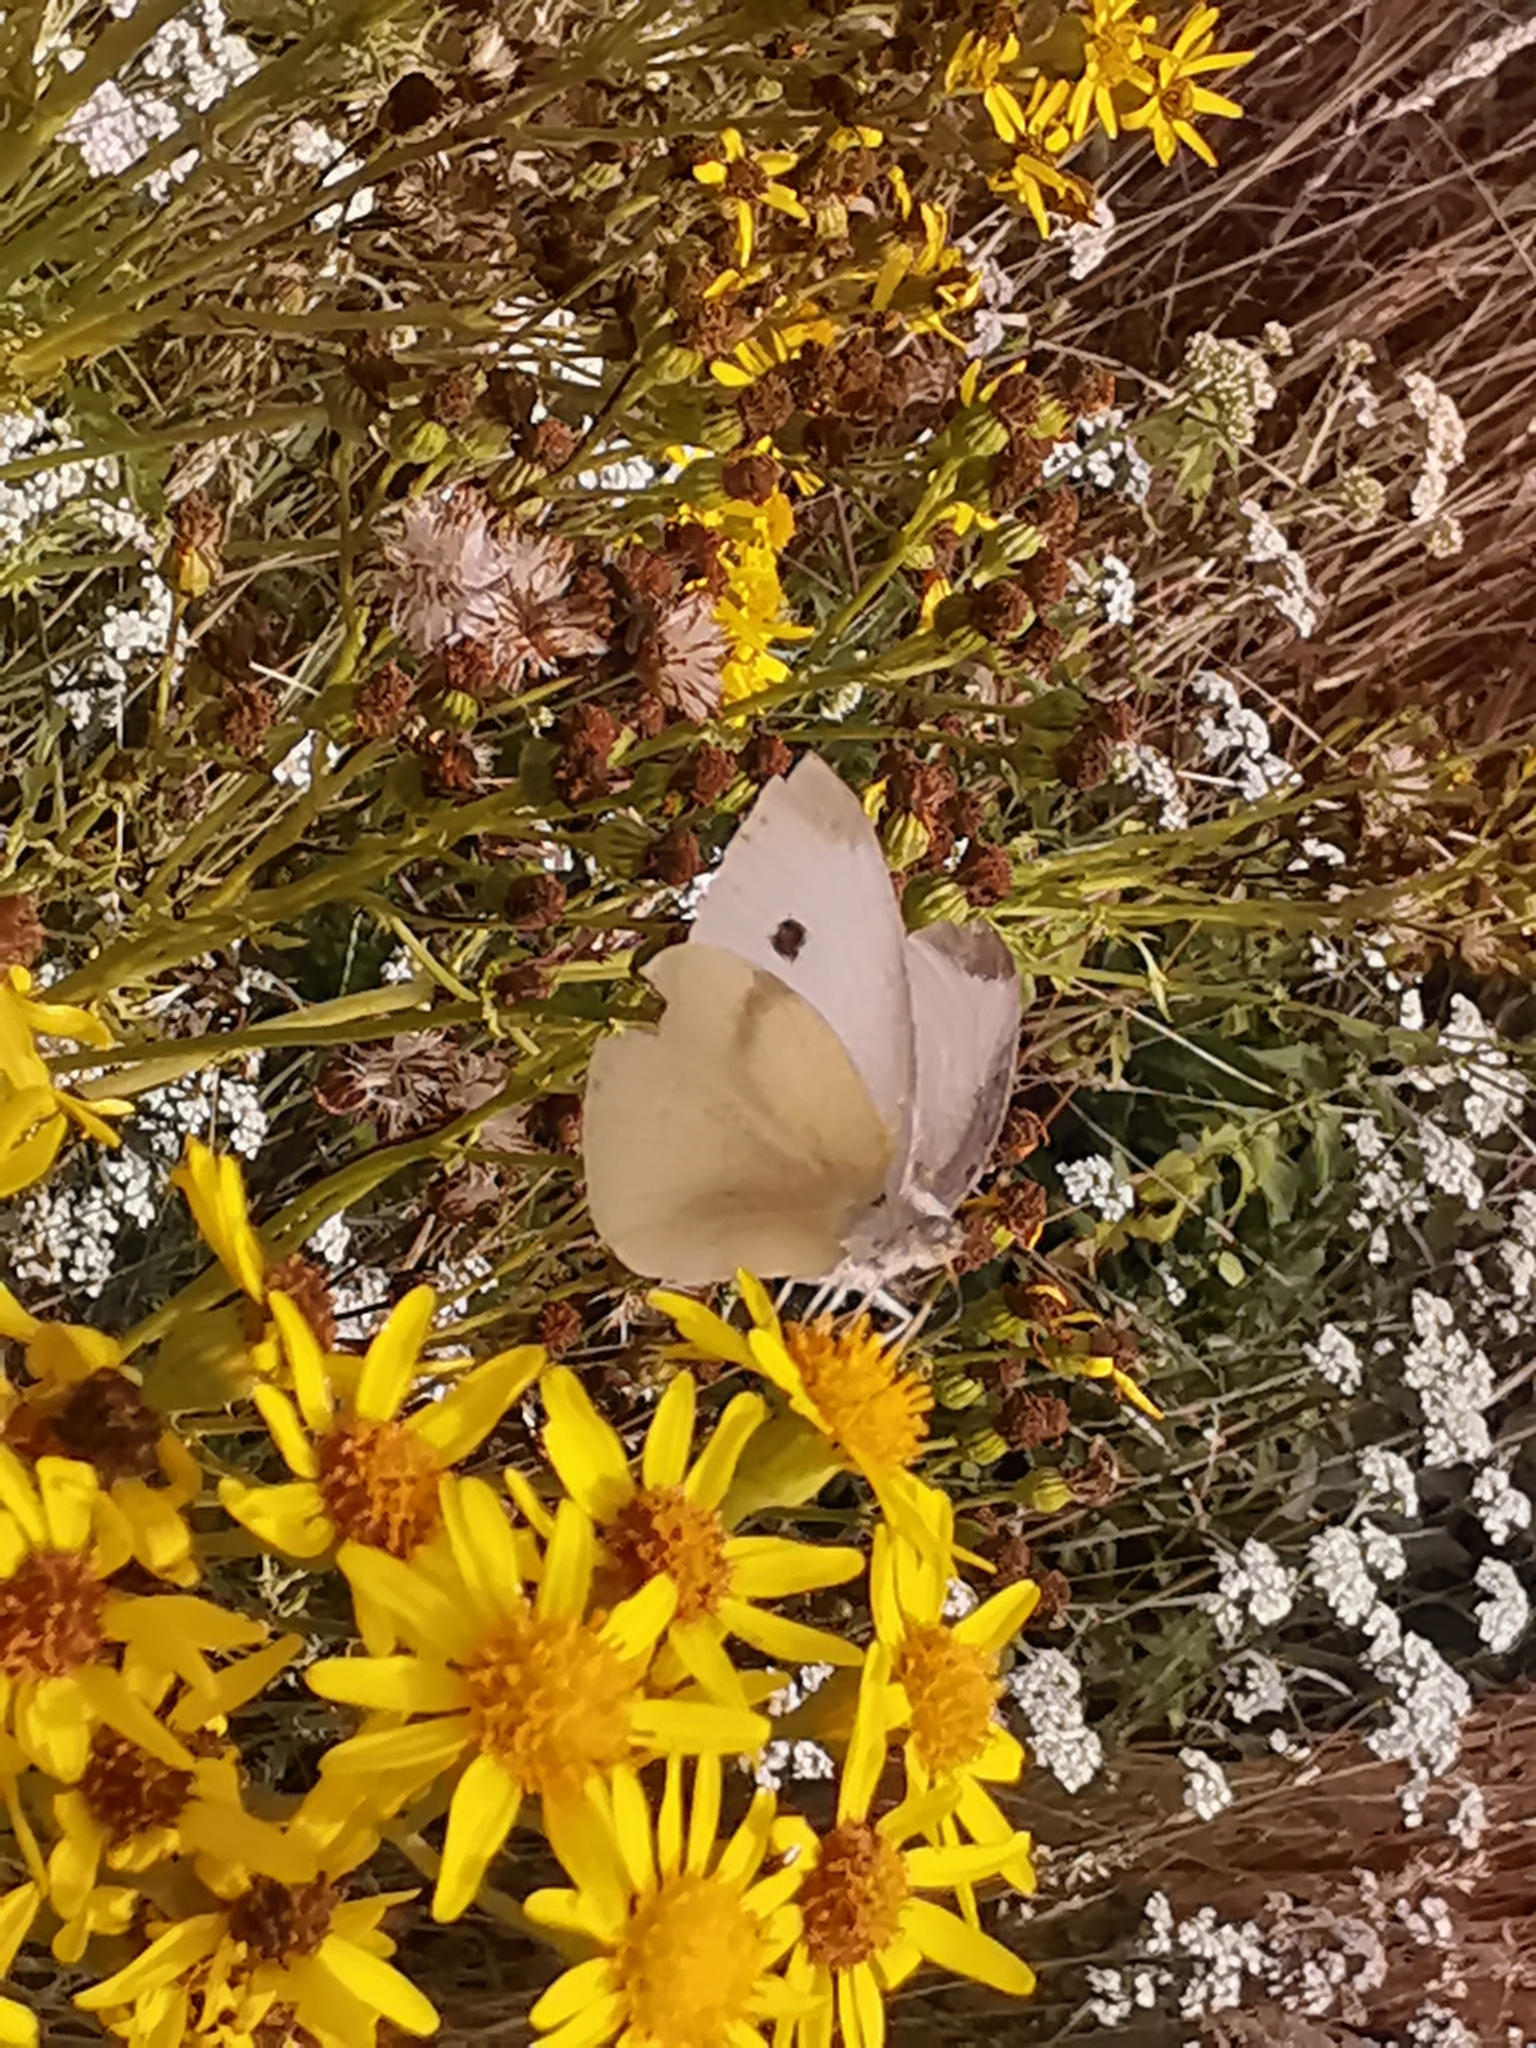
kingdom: Animalia
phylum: Arthropoda
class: Insecta
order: Lepidoptera
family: Pieridae
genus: Pieris
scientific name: Pieris rapae
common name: Small white
